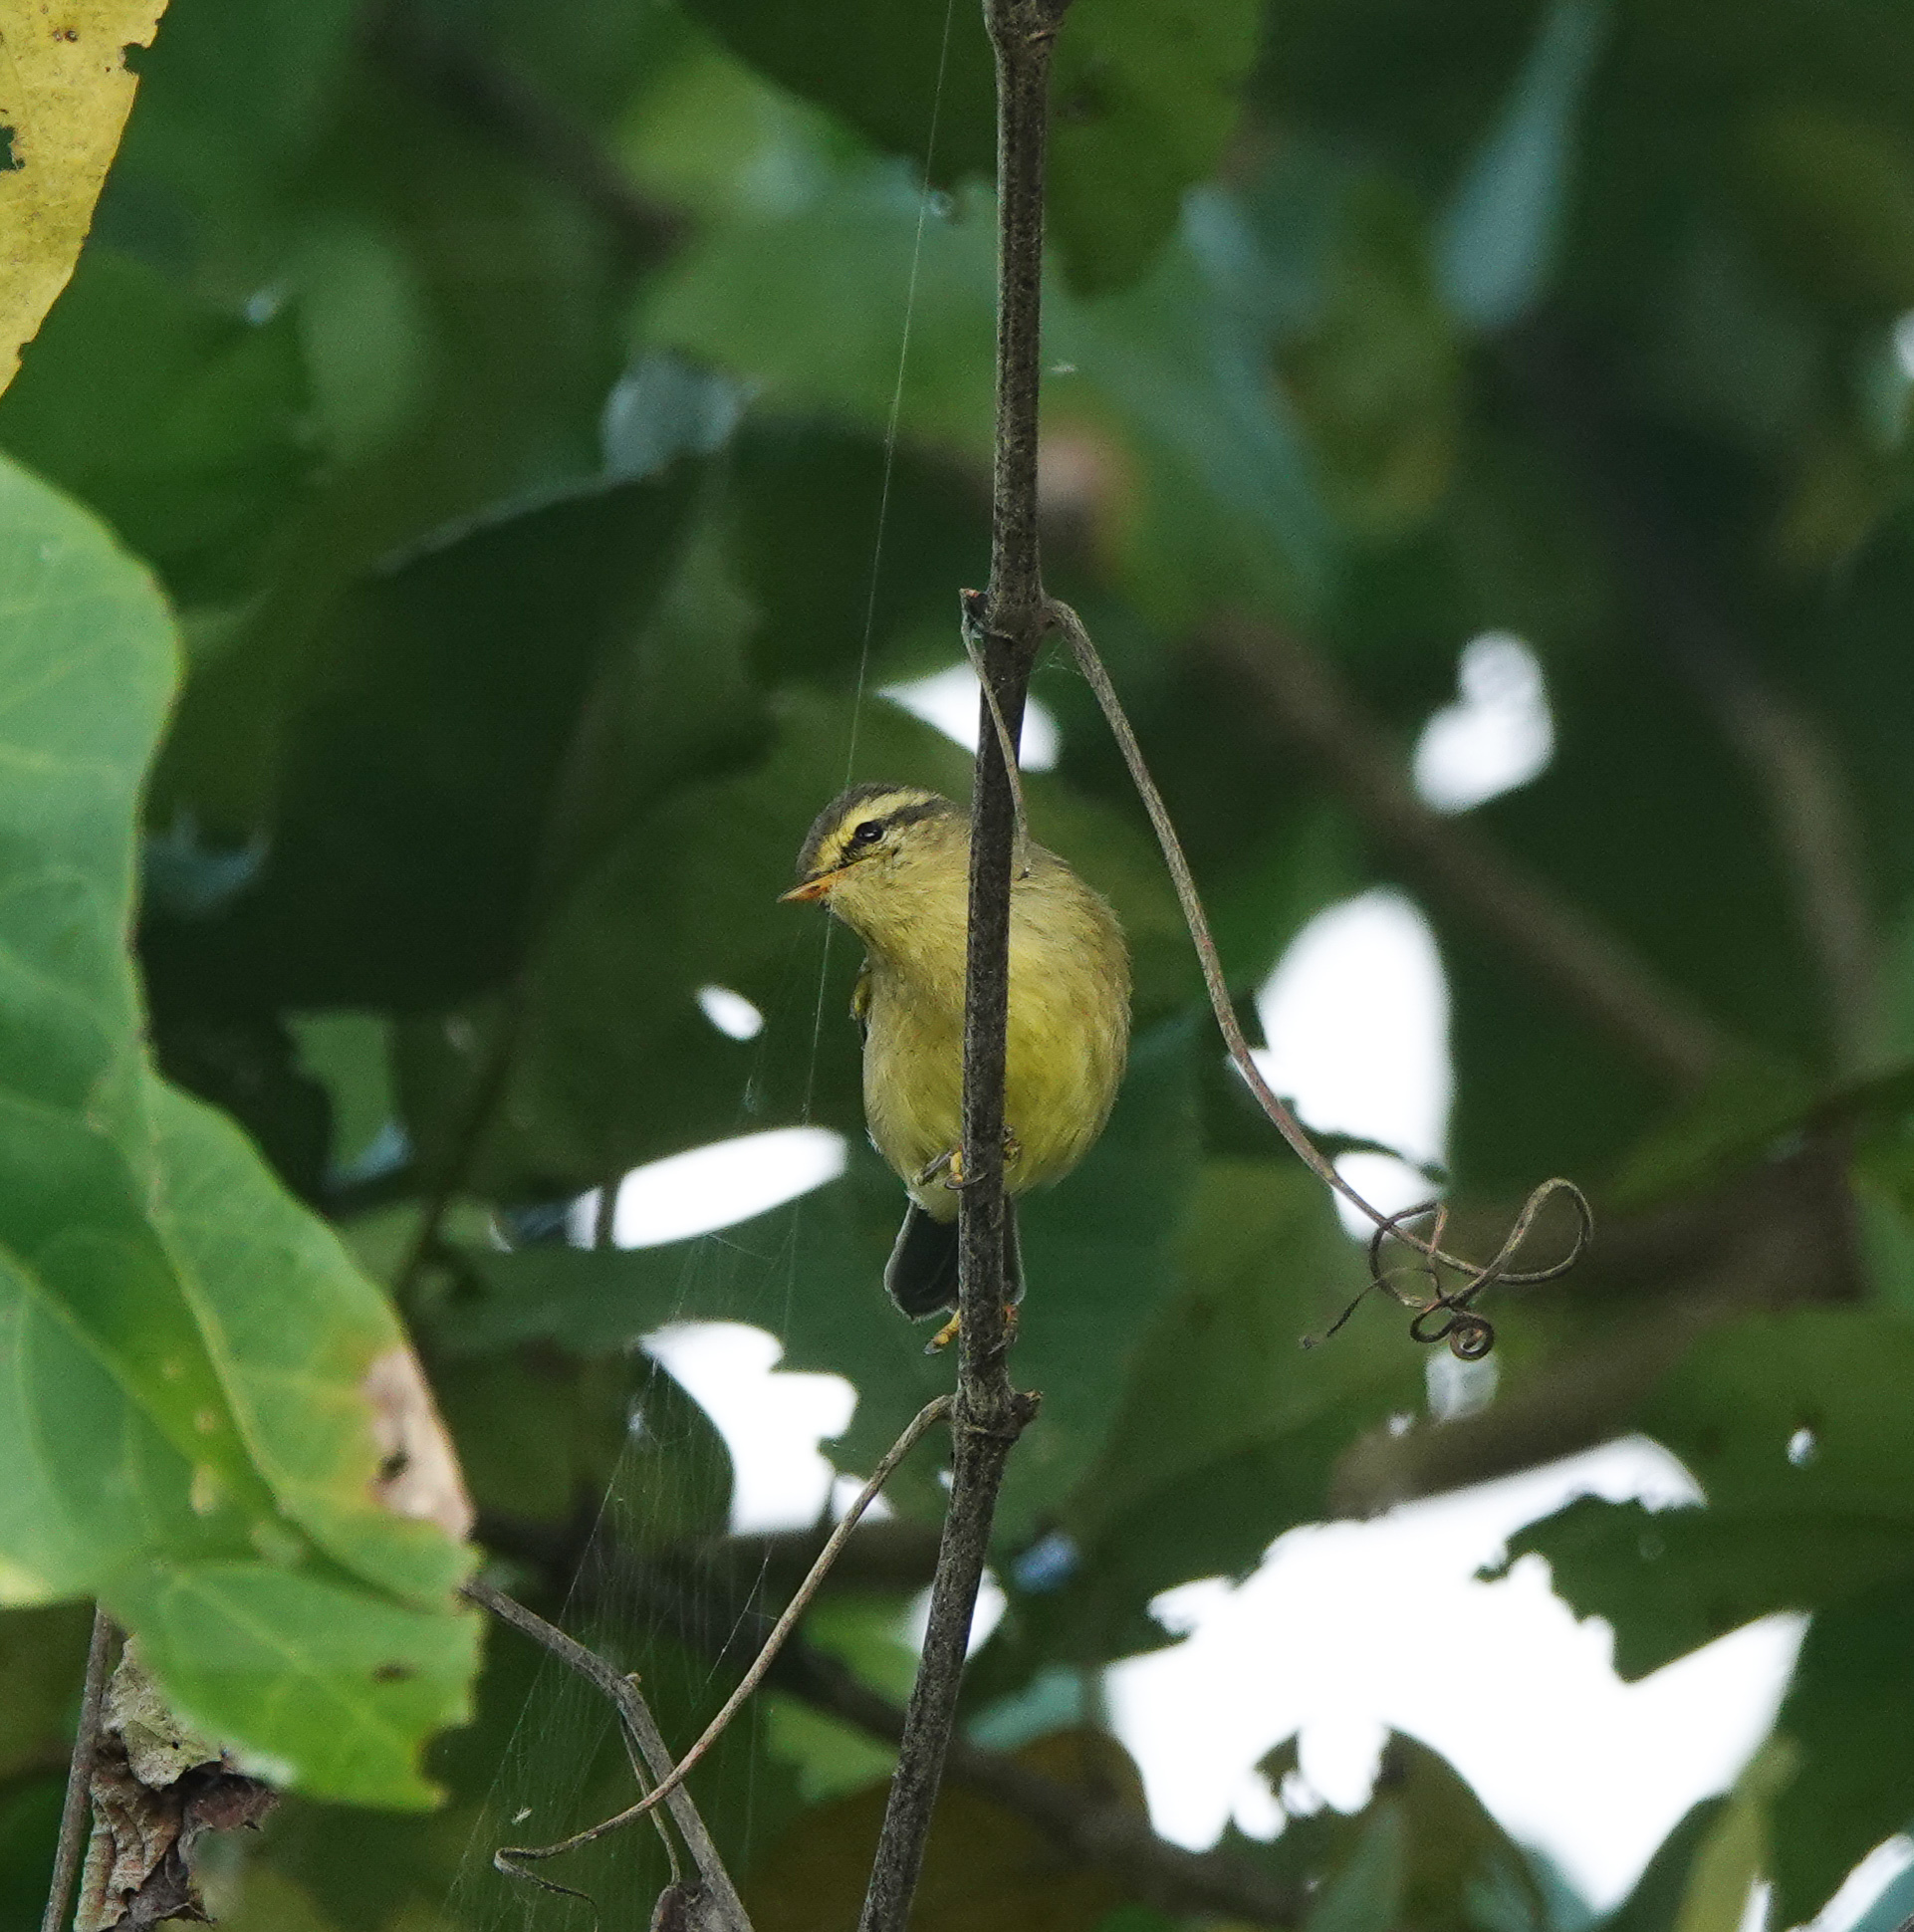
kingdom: Animalia
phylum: Chordata
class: Aves
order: Passeriformes
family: Phylloscopidae
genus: Phylloscopus
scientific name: Phylloscopus affinis
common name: Tickell's leaf warbler
